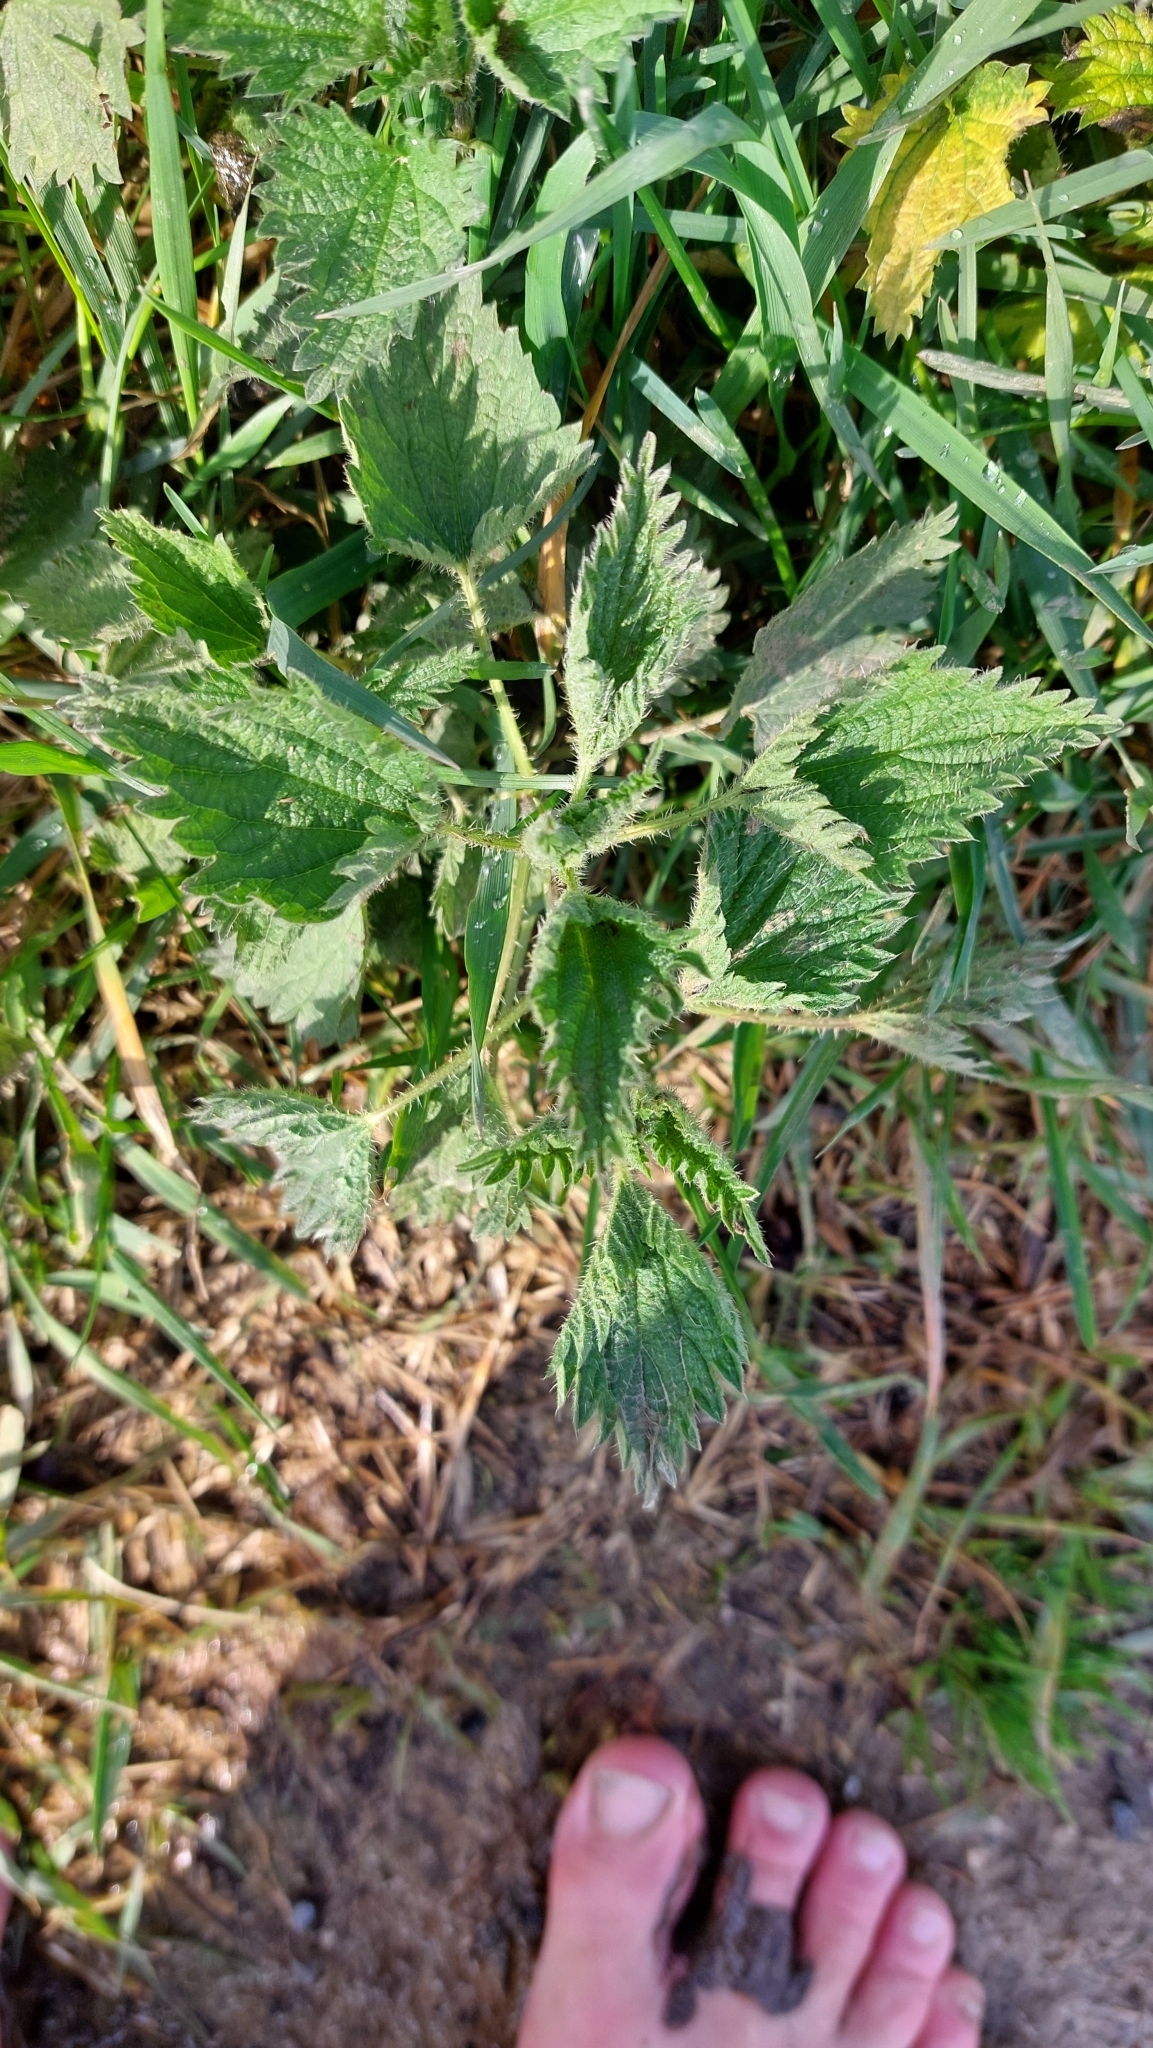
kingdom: Plantae
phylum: Tracheophyta
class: Magnoliopsida
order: Rosales
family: Urticaceae
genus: Urtica
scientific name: Urtica dioica
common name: Common nettle
